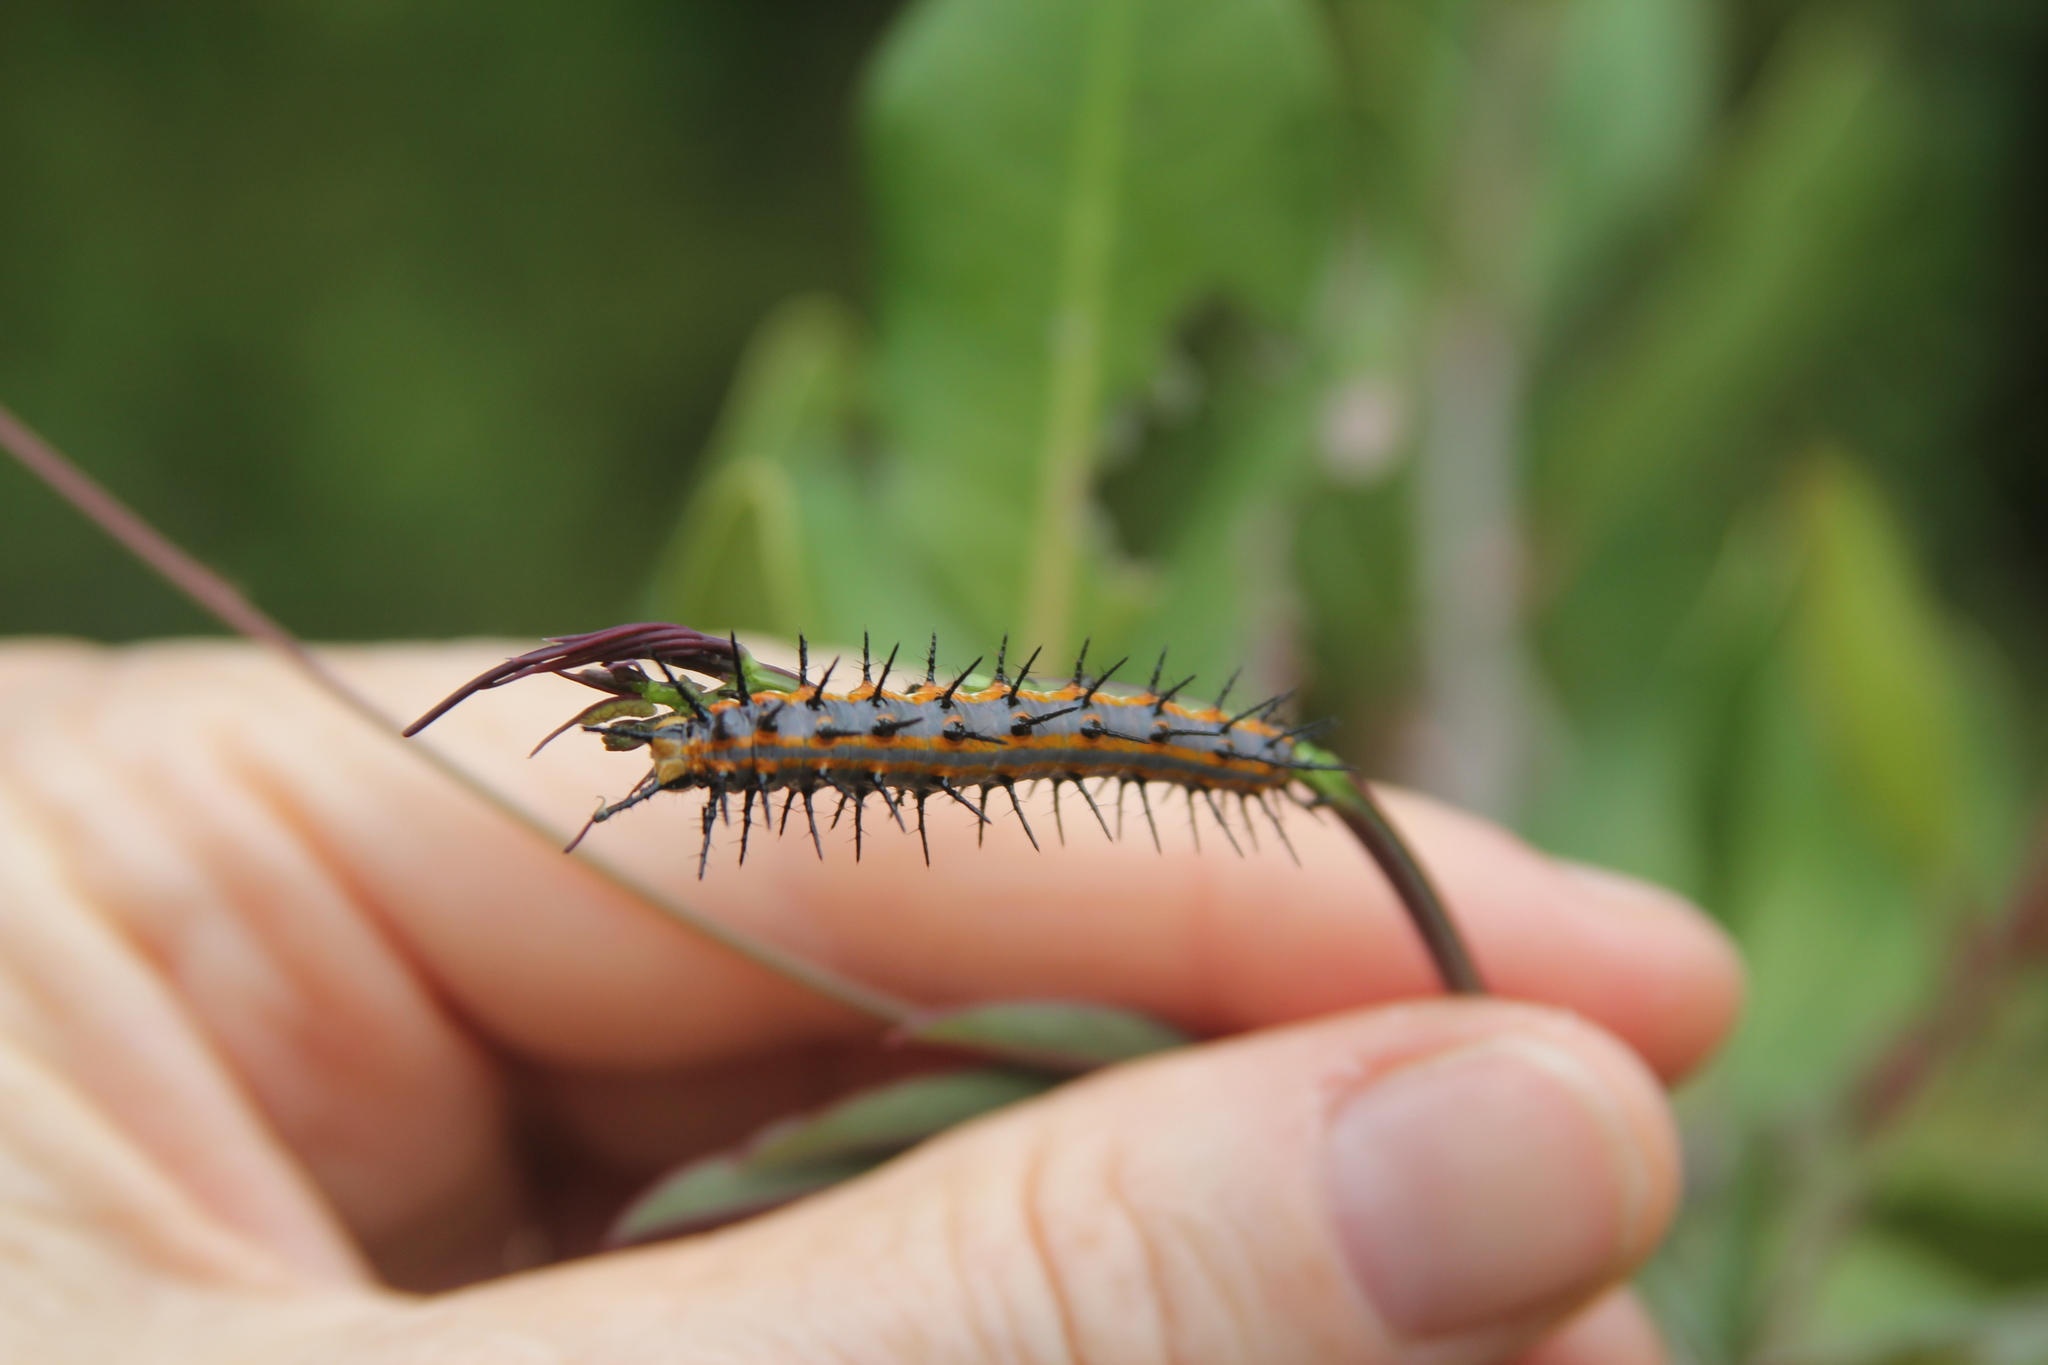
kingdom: Animalia
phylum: Arthropoda
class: Insecta
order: Lepidoptera
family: Nymphalidae
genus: Dione
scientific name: Dione vanillae
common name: Gulf fritillary
